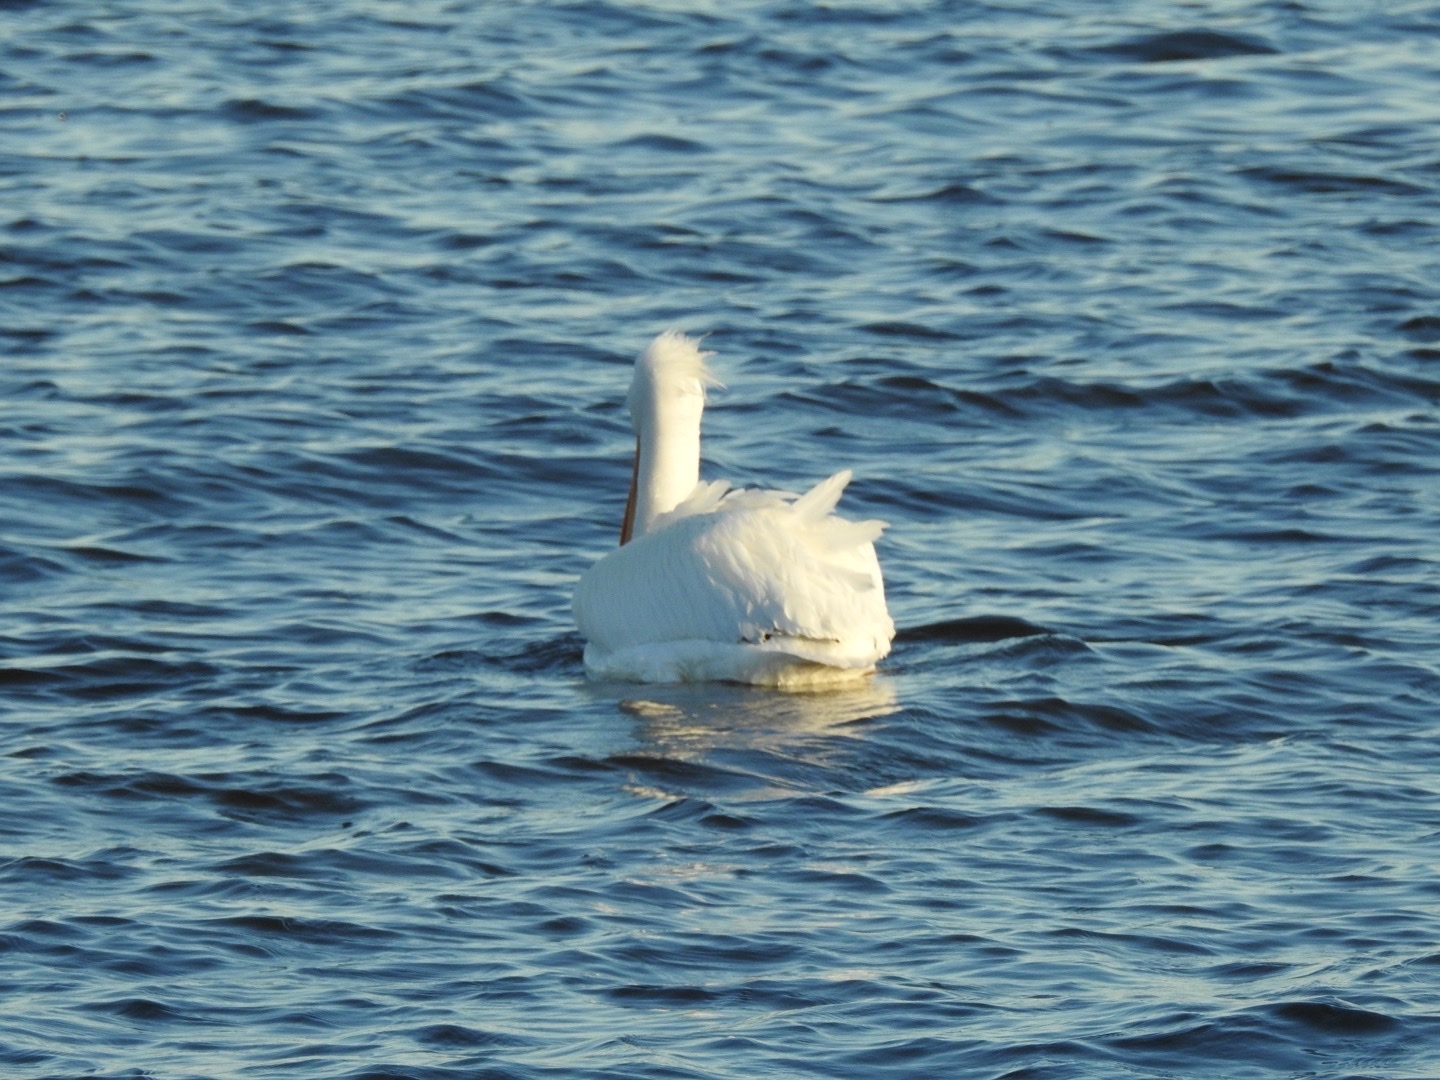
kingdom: Animalia
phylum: Chordata
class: Aves
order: Pelecaniformes
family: Pelecanidae
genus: Pelecanus
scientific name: Pelecanus erythrorhynchos
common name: American white pelican
